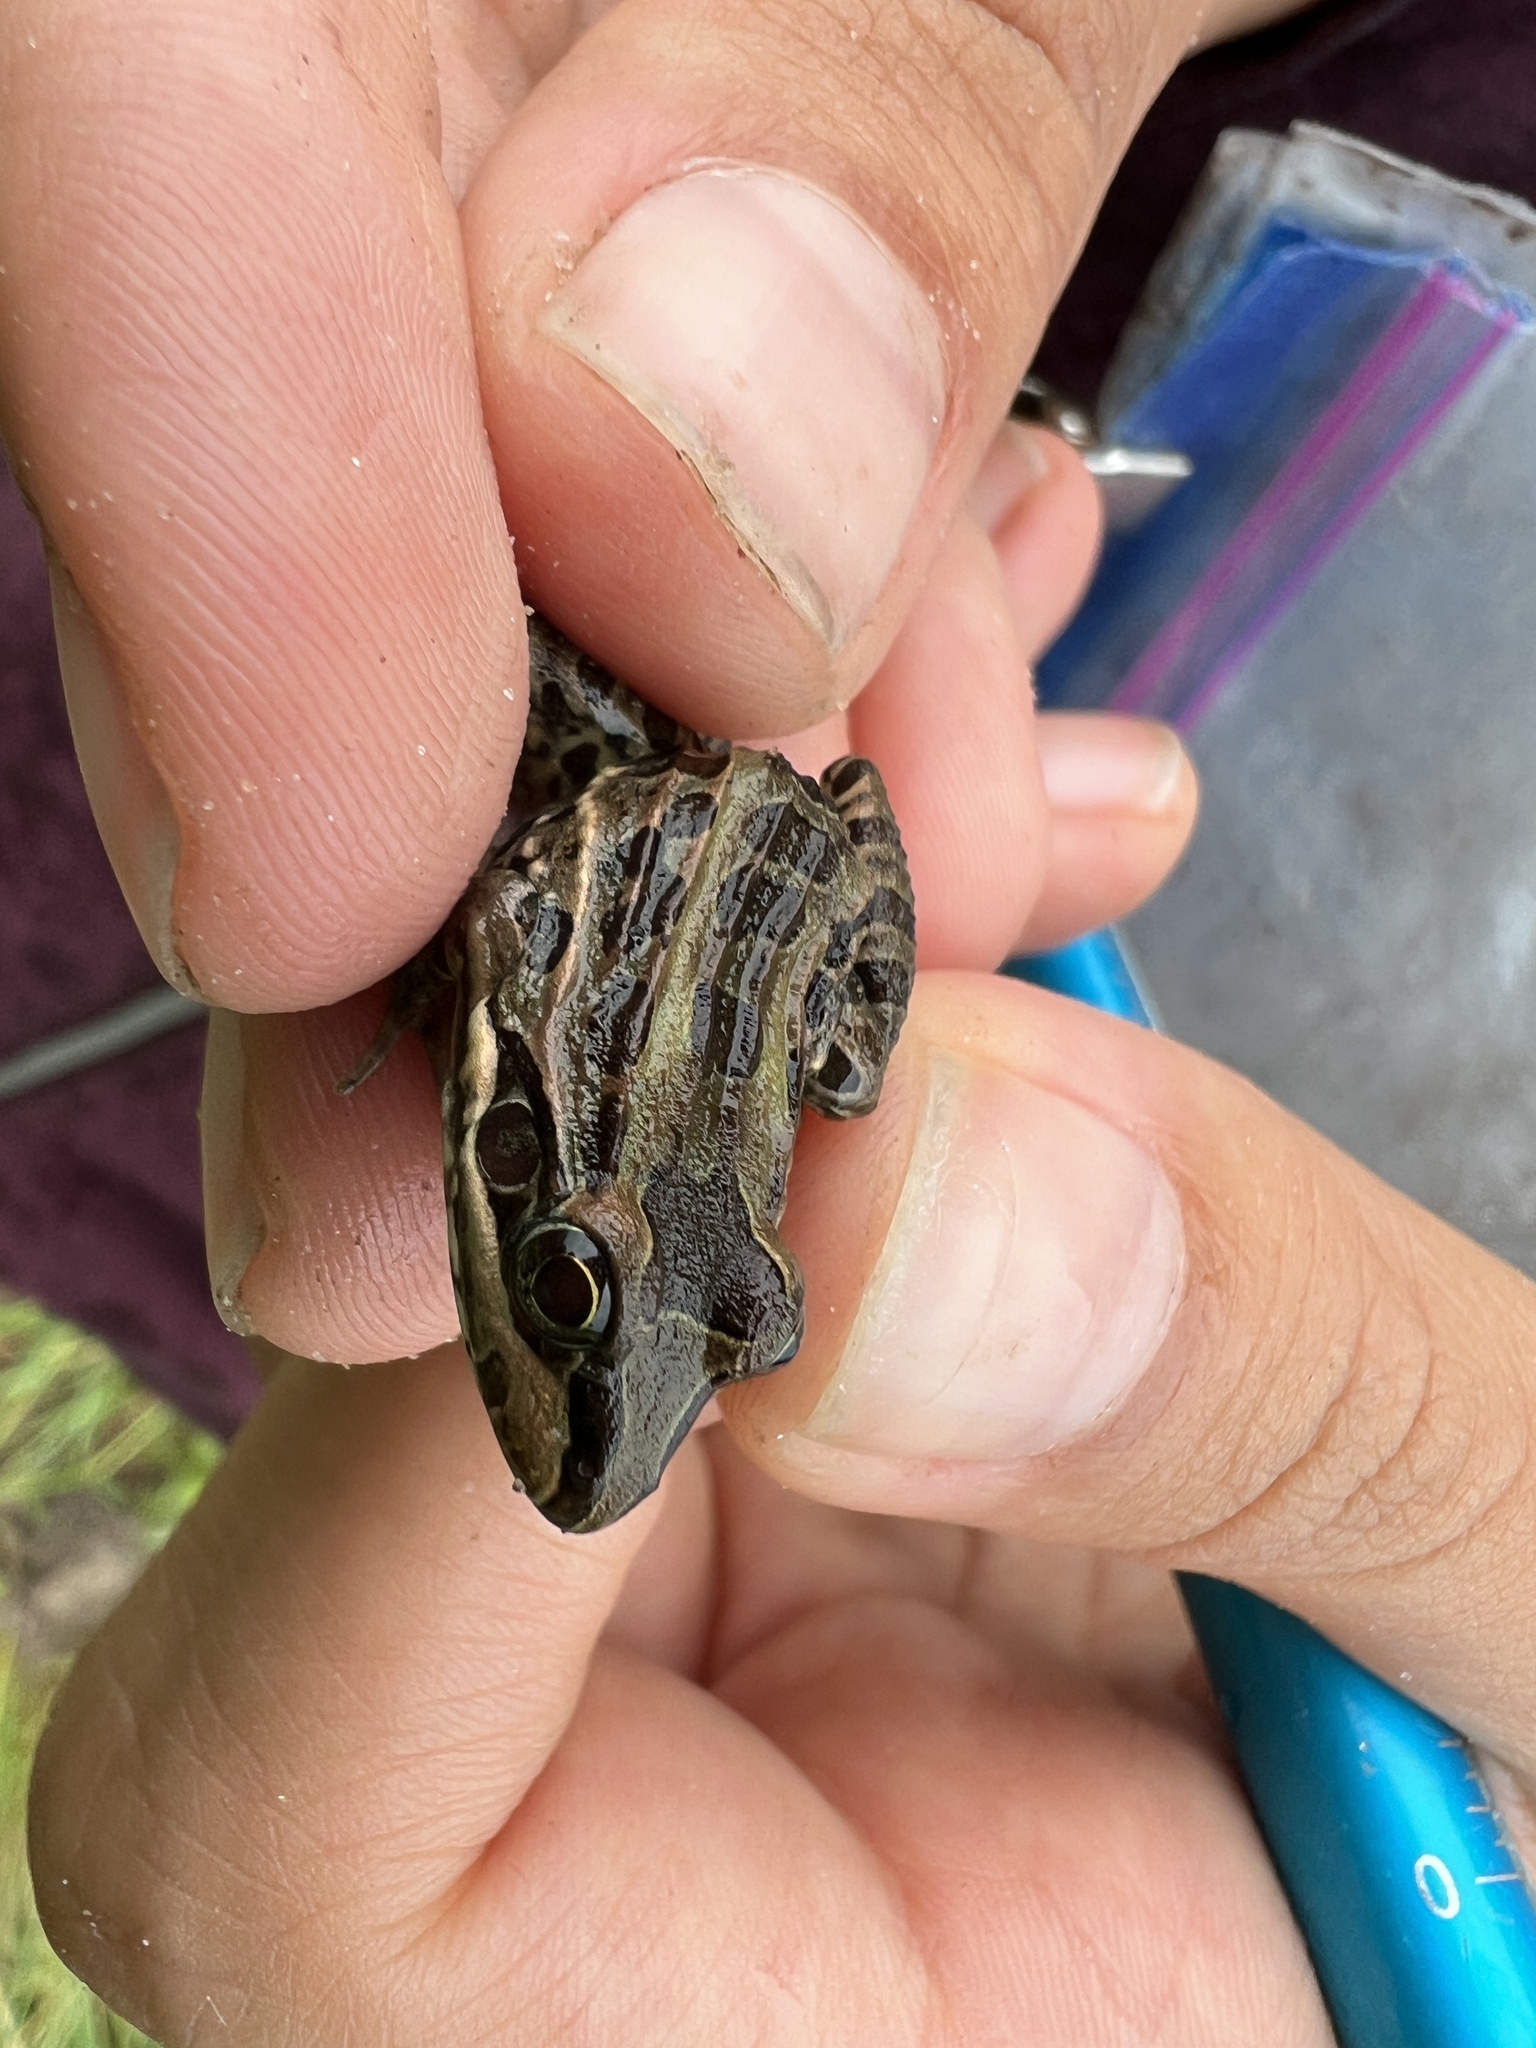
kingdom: Animalia
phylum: Chordata
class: Amphibia
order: Anura
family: Leptodactylidae
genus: Leptodactylus
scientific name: Leptodactylus latrans
